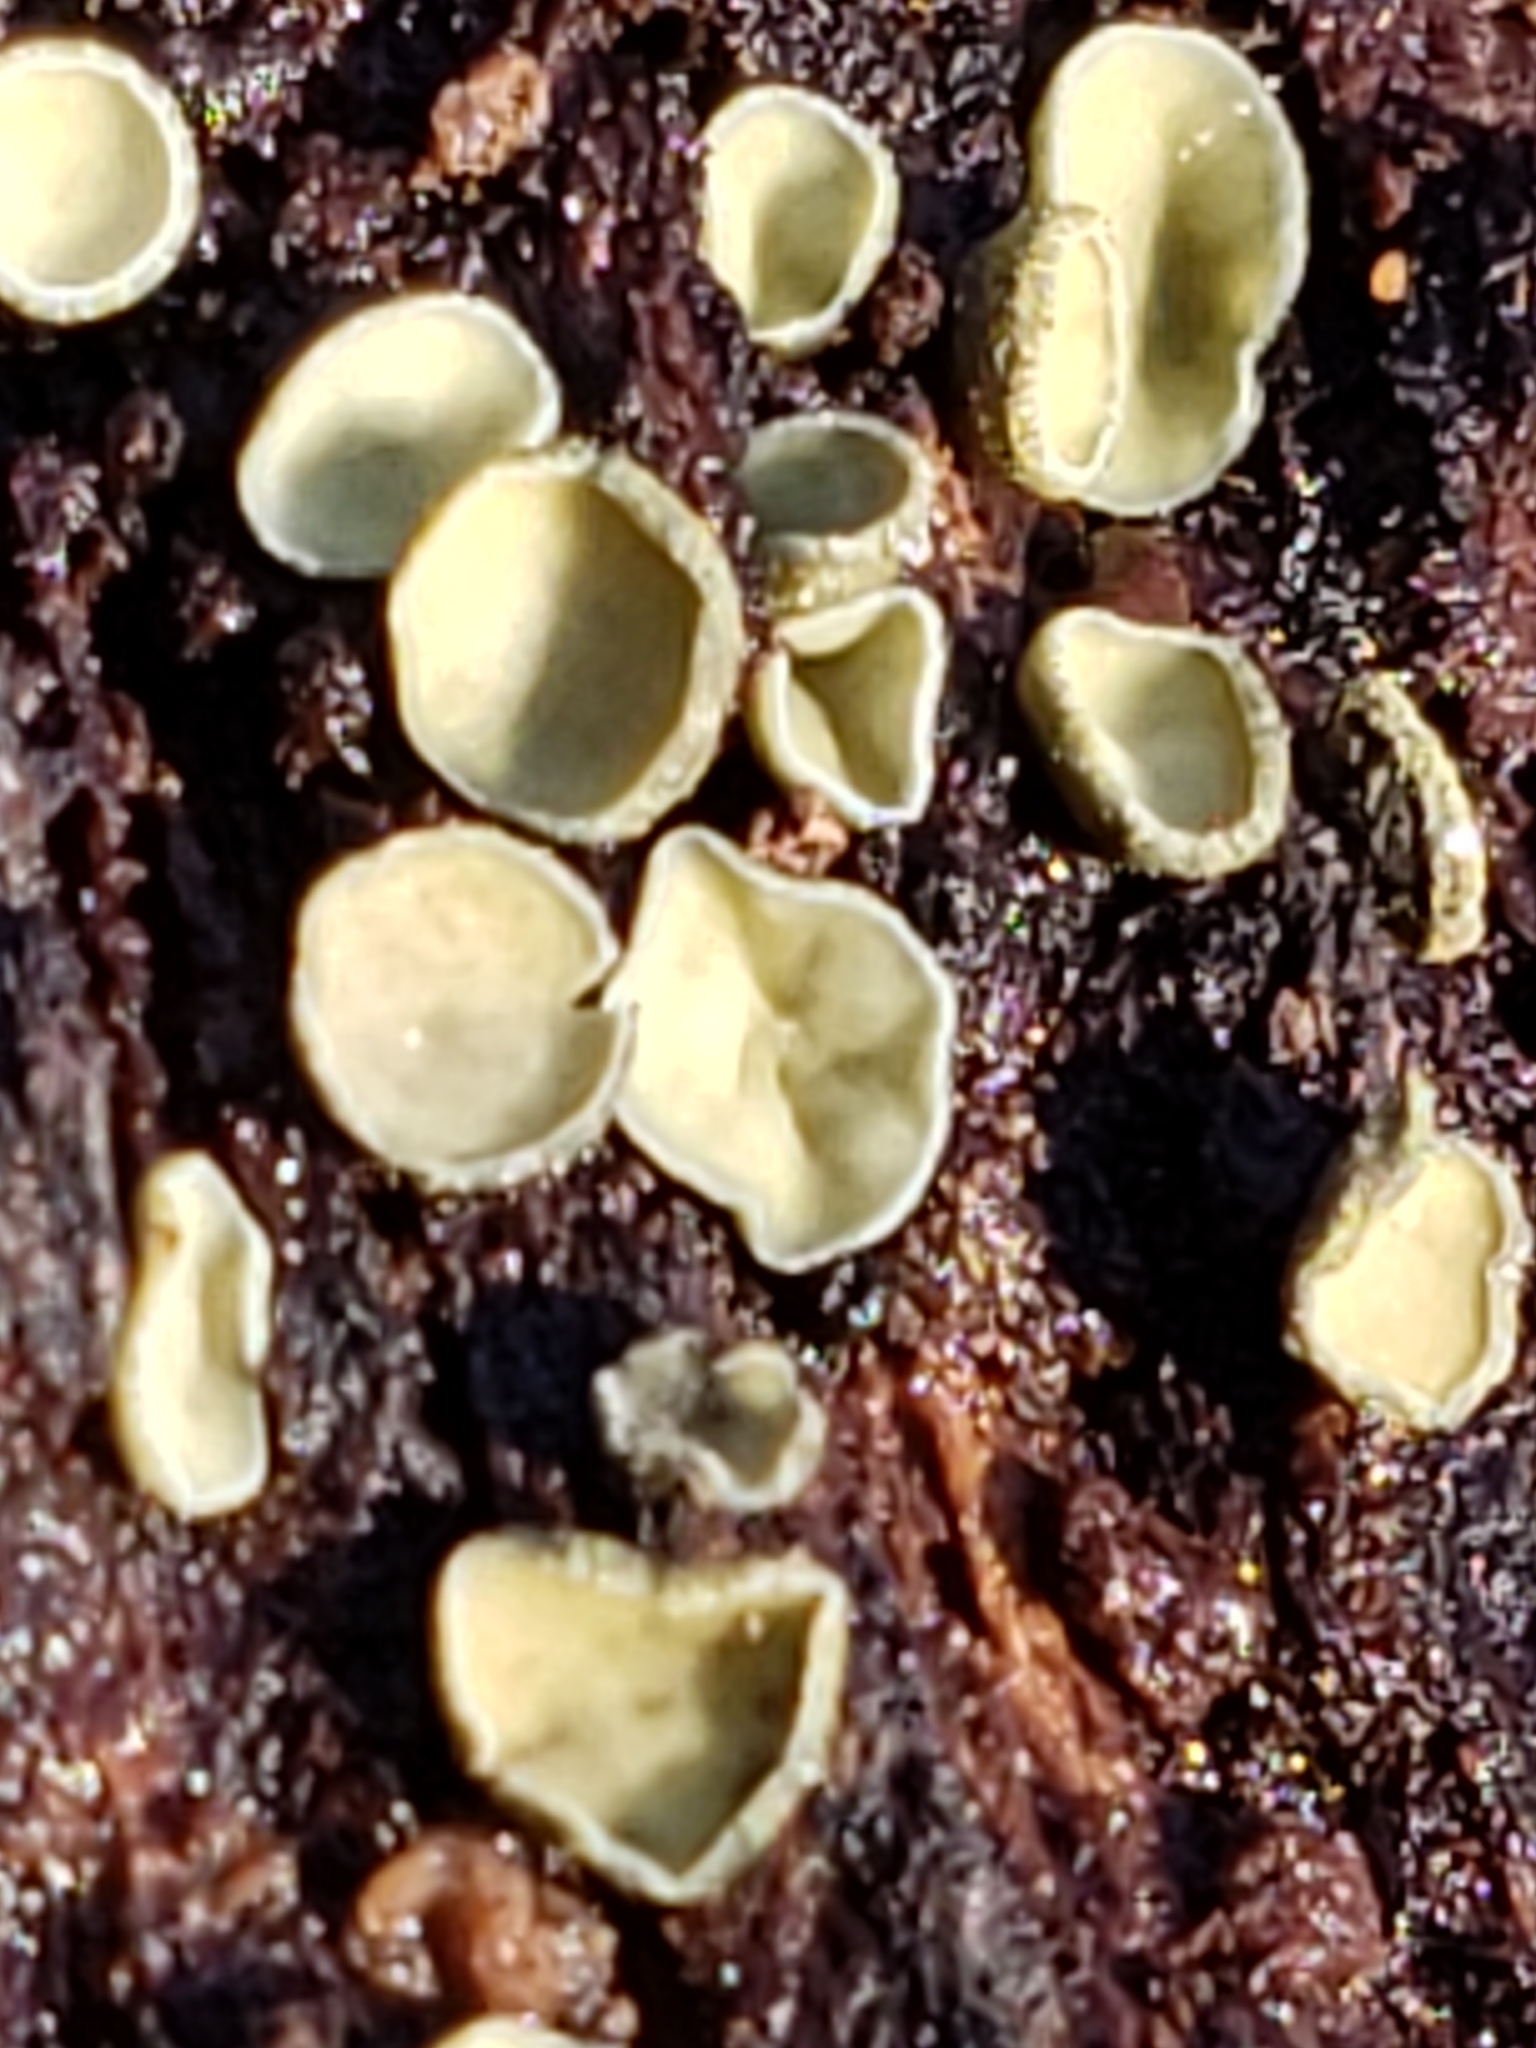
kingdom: Fungi
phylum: Ascomycota
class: Leotiomycetes
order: Helotiales
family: Chlorospleniaceae
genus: Chlorosplenium
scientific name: Chlorosplenium chlora
